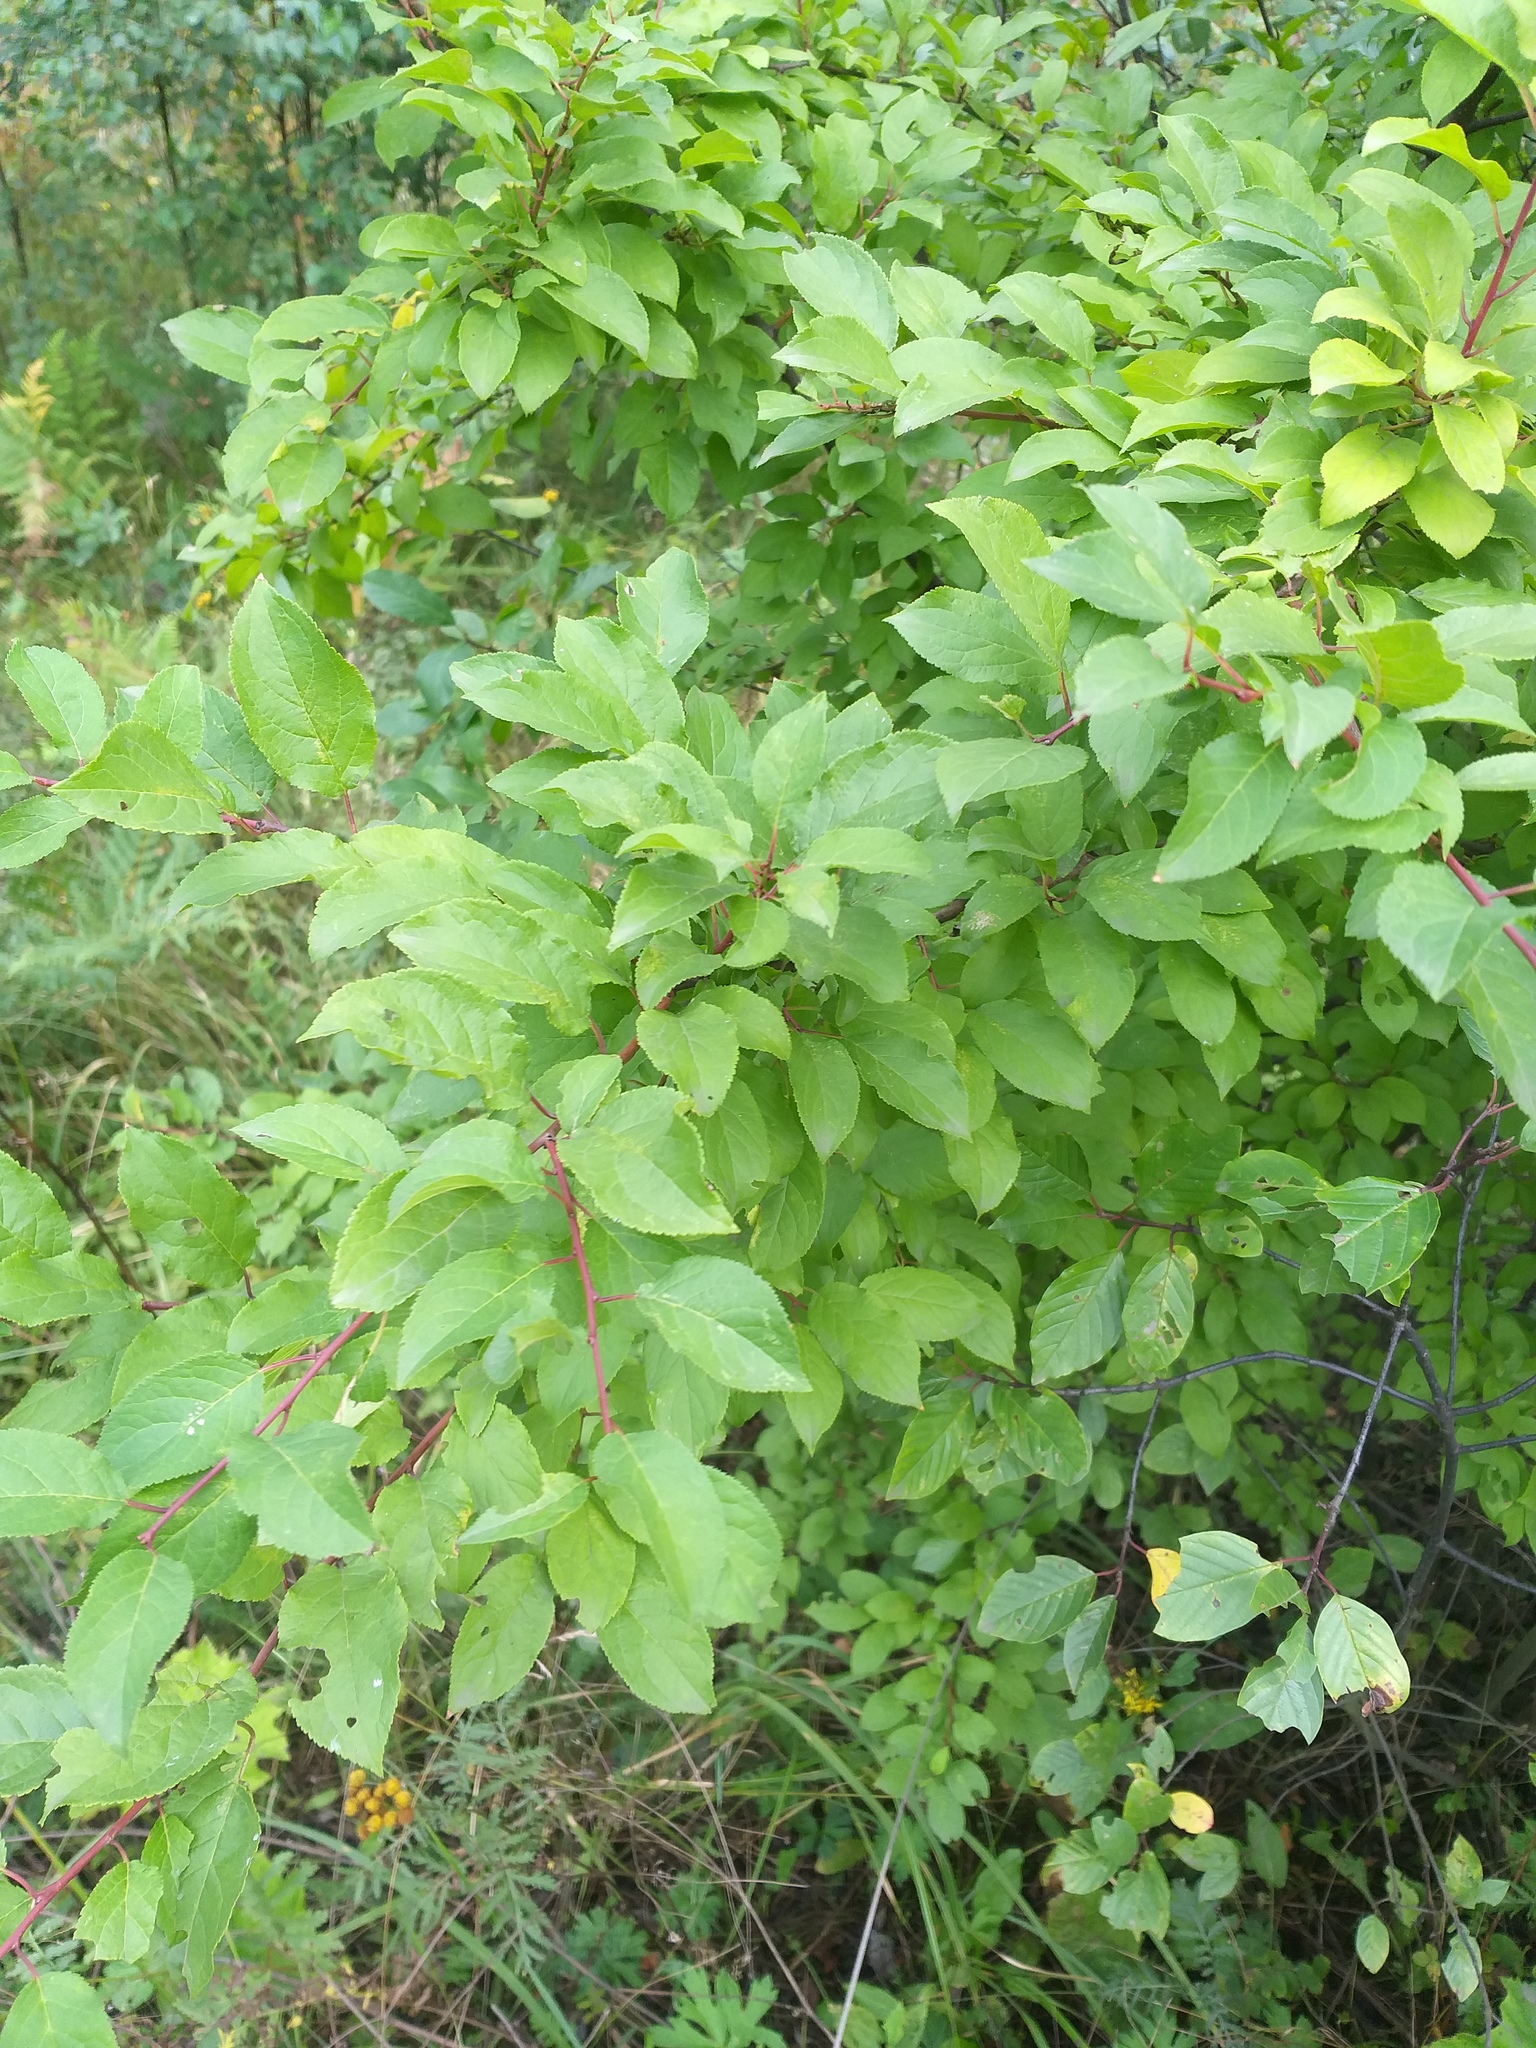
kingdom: Plantae
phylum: Tracheophyta
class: Magnoliopsida
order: Rosales
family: Rosaceae
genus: Prunus
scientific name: Prunus cerasifera
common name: Cherry plum
